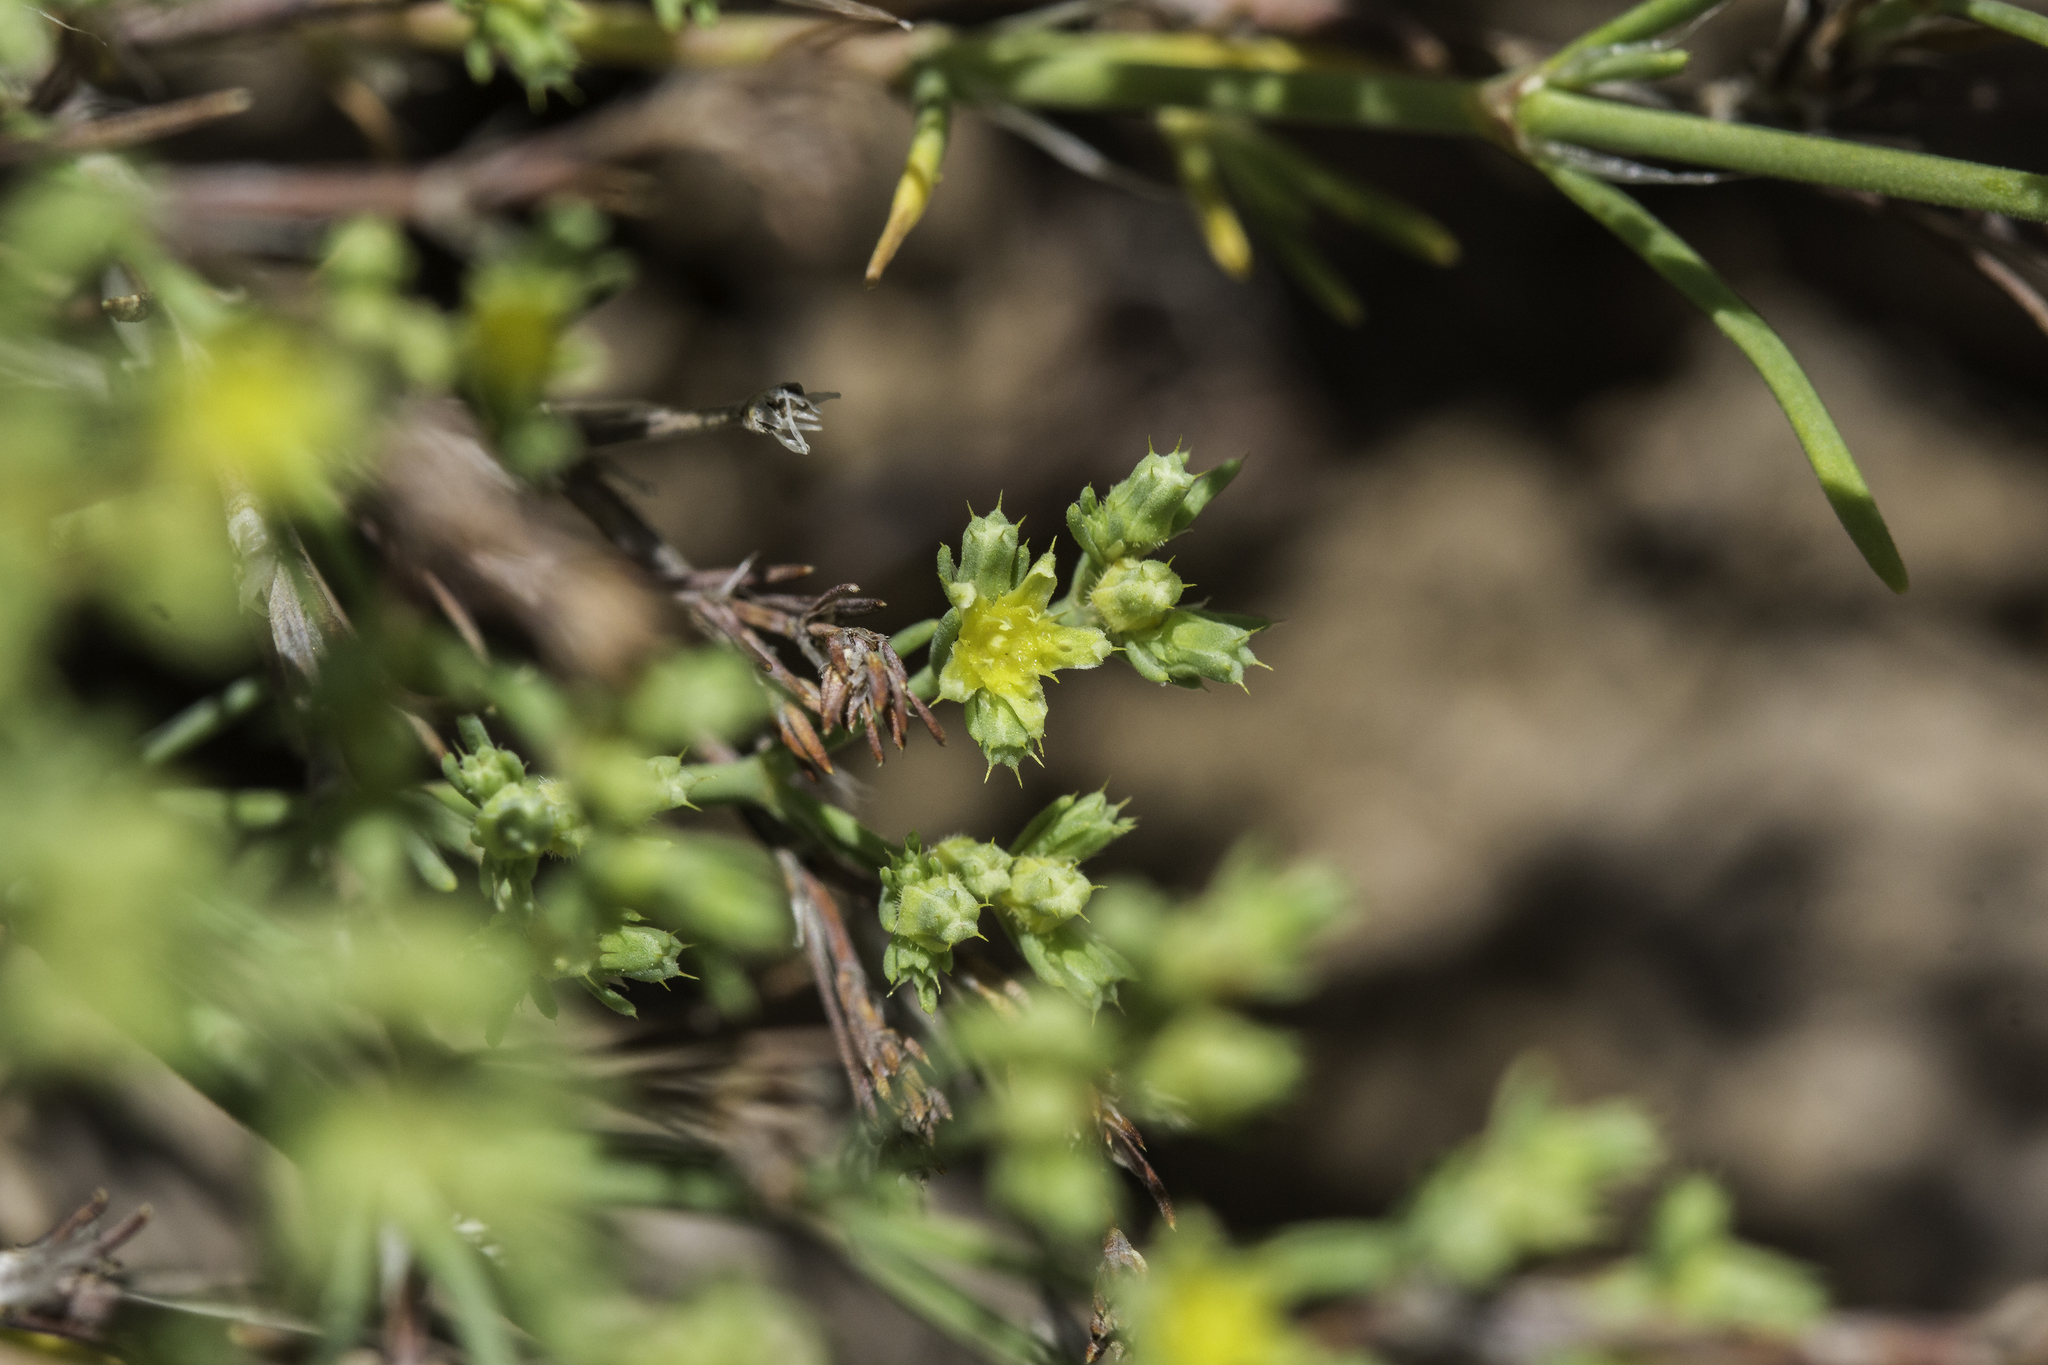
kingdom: Plantae
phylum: Tracheophyta
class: Magnoliopsida
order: Caryophyllales
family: Caryophyllaceae
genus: Paronychia
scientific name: Paronychia jamesii
